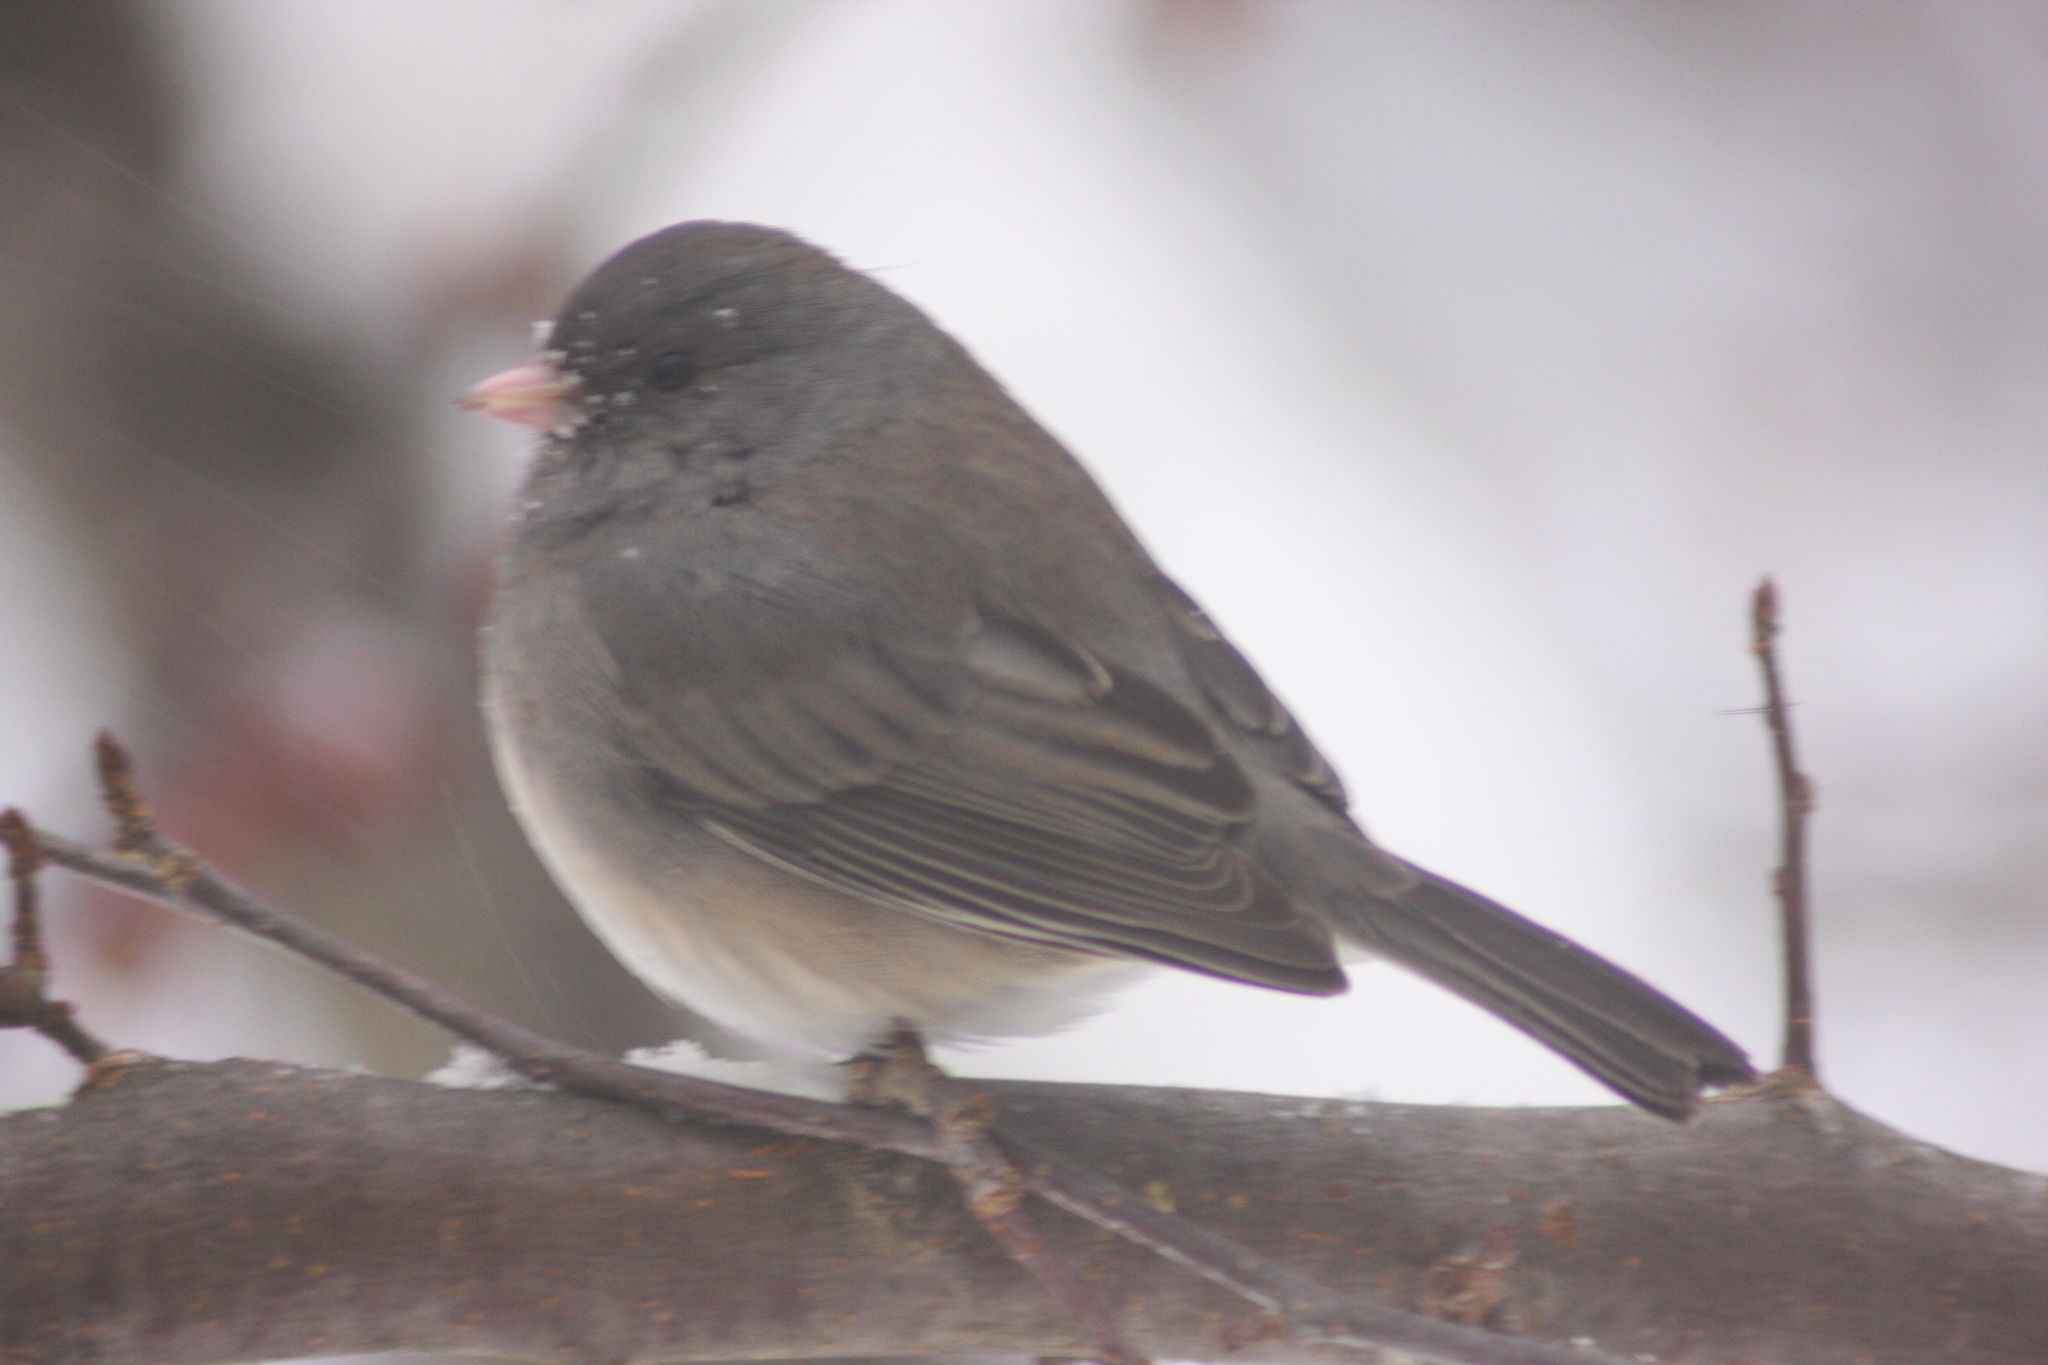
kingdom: Animalia
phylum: Chordata
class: Aves
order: Passeriformes
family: Passerellidae
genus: Junco
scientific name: Junco hyemalis
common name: Dark-eyed junco
